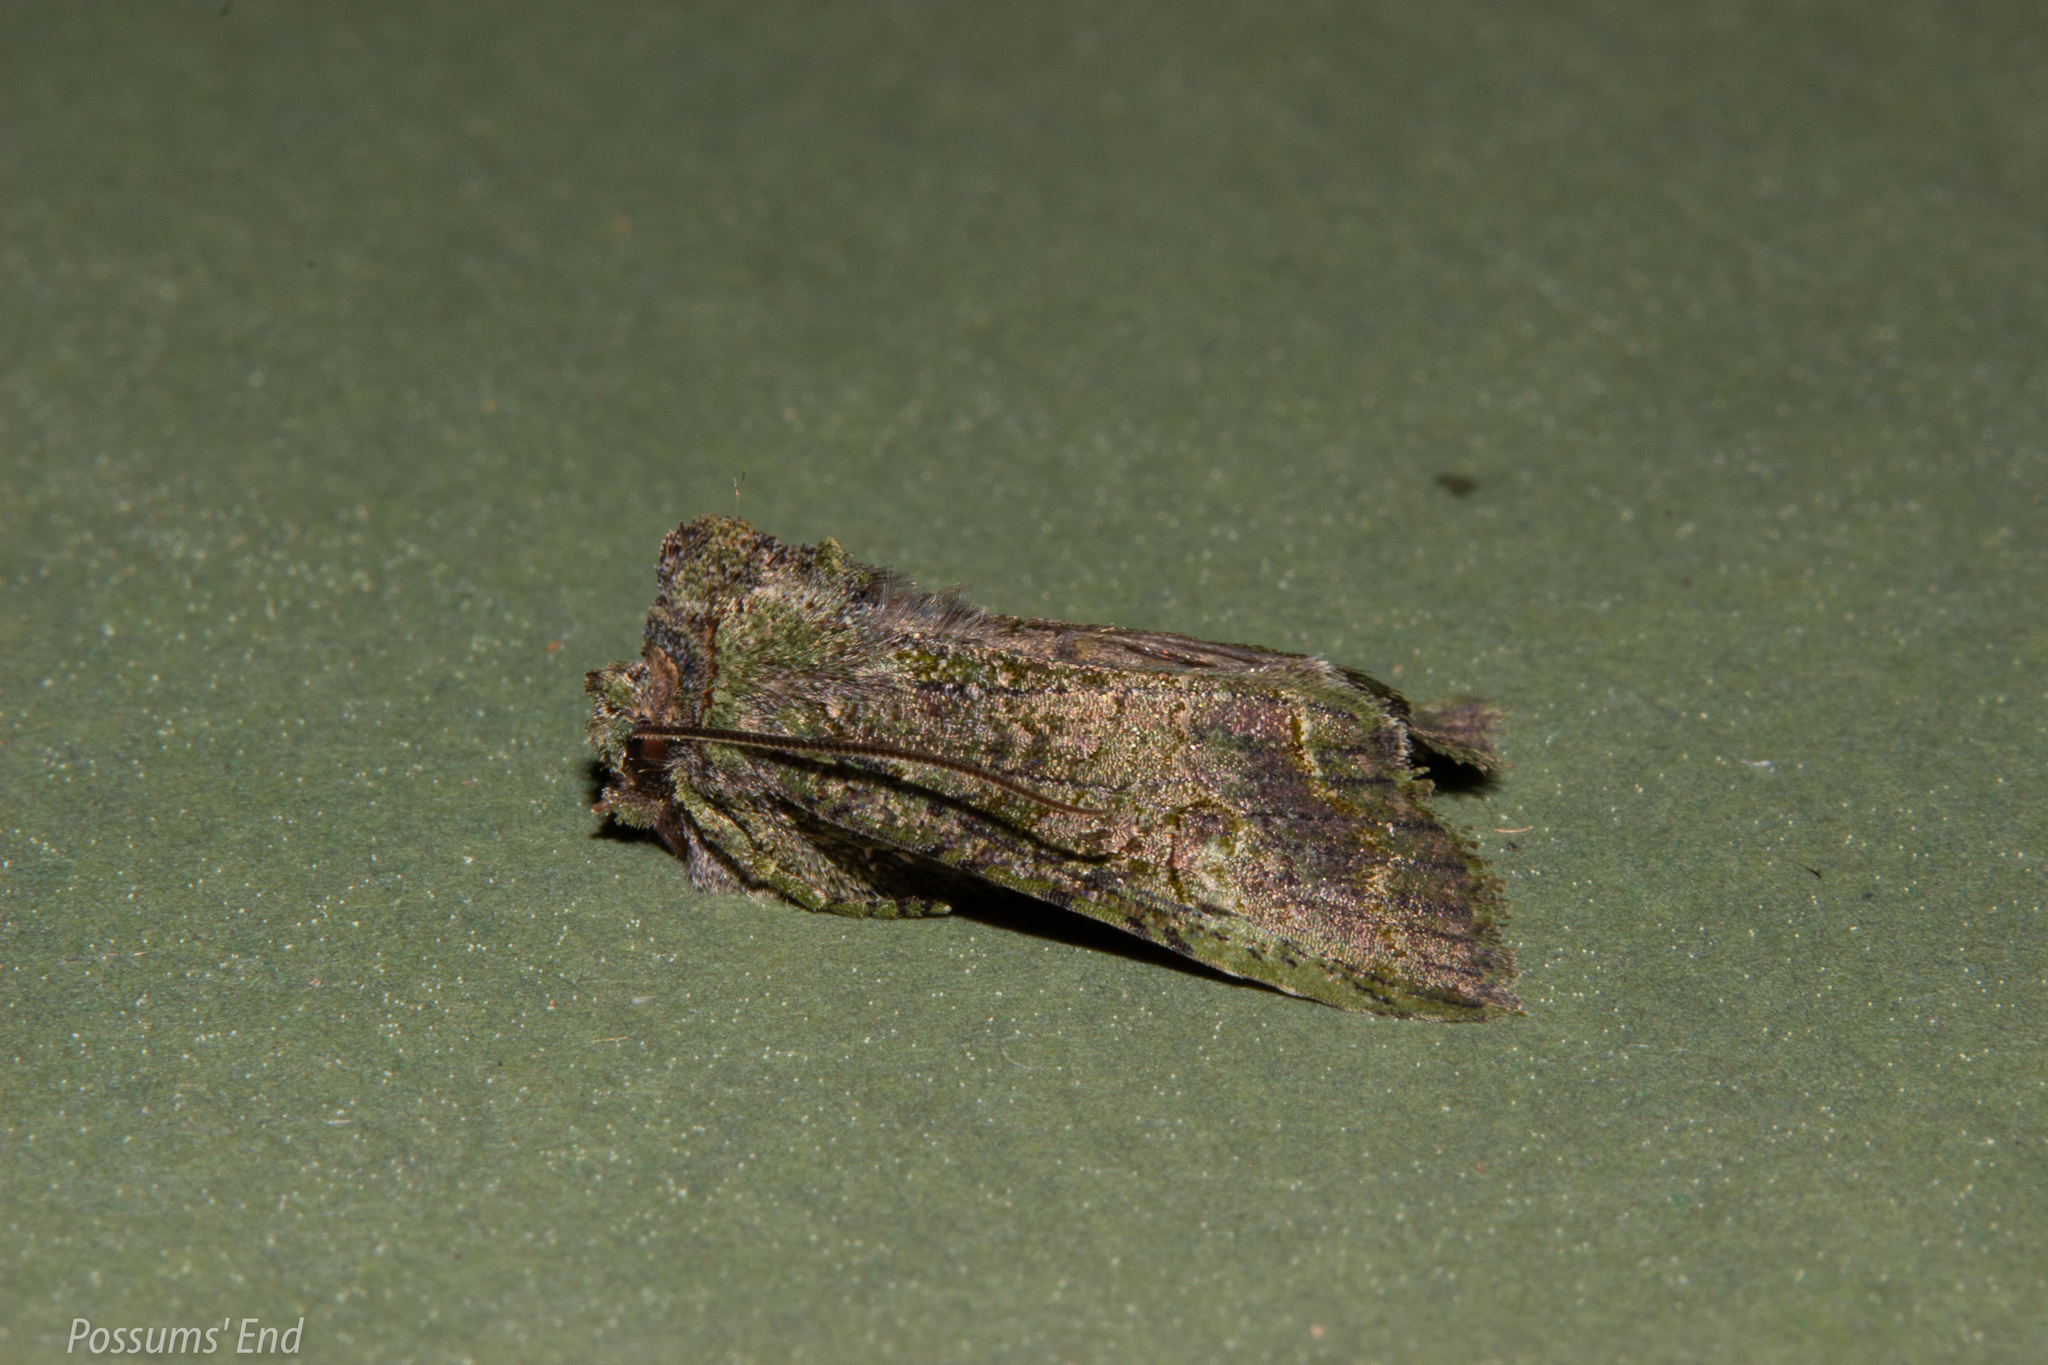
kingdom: Animalia
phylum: Arthropoda
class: Insecta
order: Lepidoptera
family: Noctuidae
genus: Meterana
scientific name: Meterana levis
